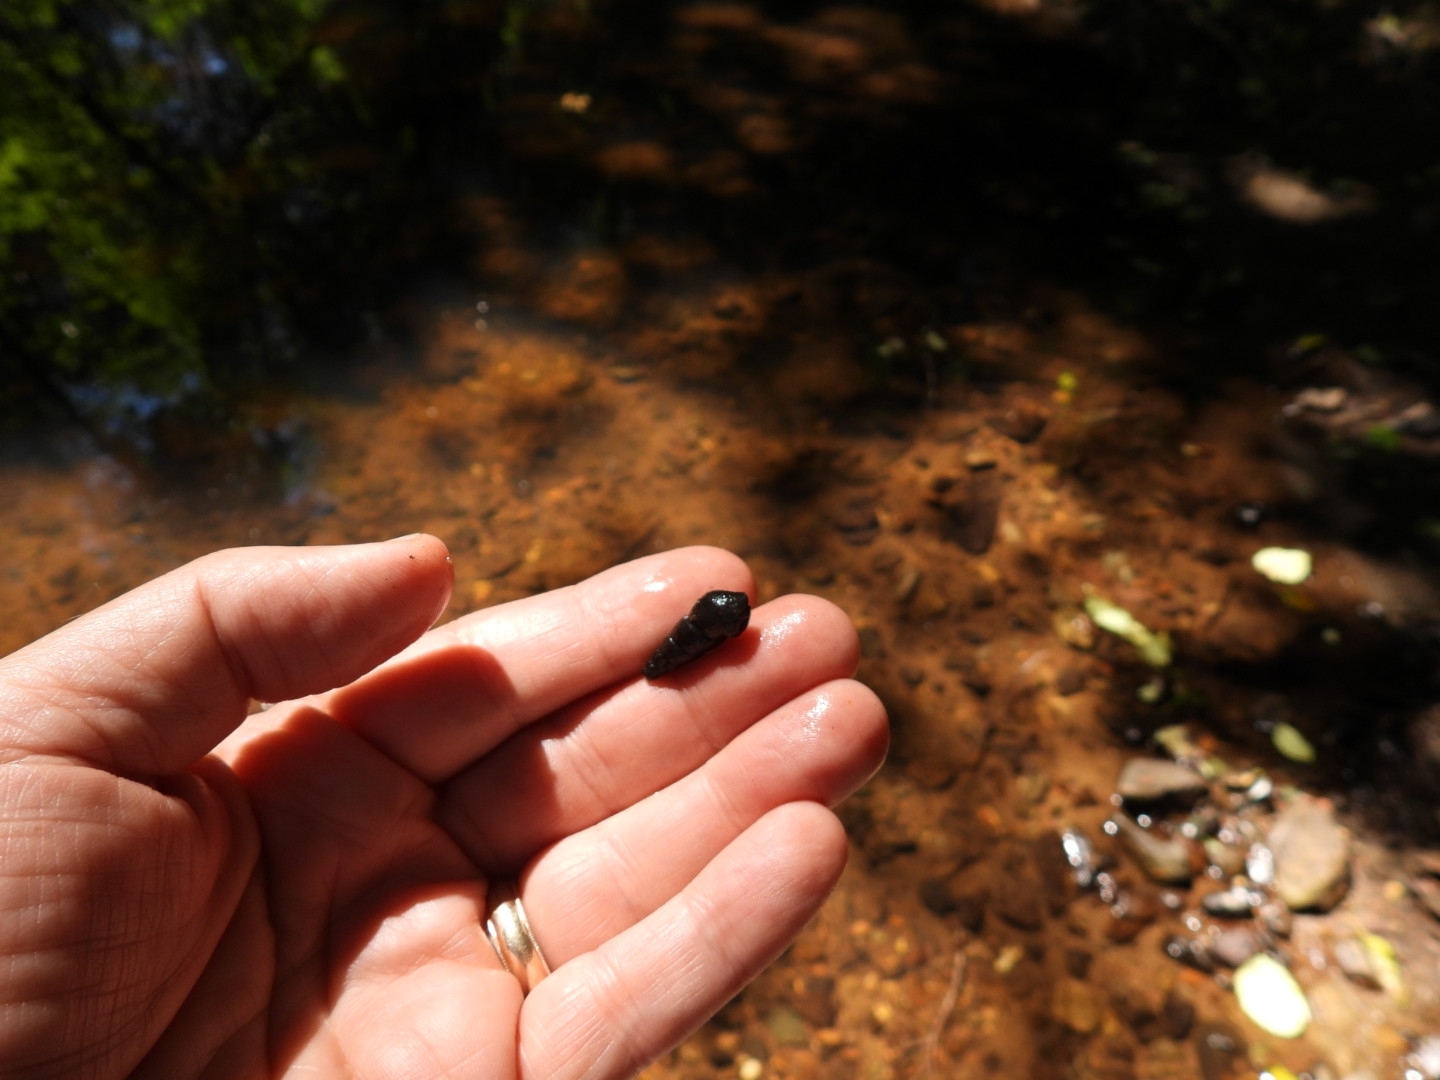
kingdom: Animalia
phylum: Mollusca
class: Gastropoda
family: Semisulcospiridae
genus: Juga
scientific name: Juga plicifera
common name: Pleated juga
